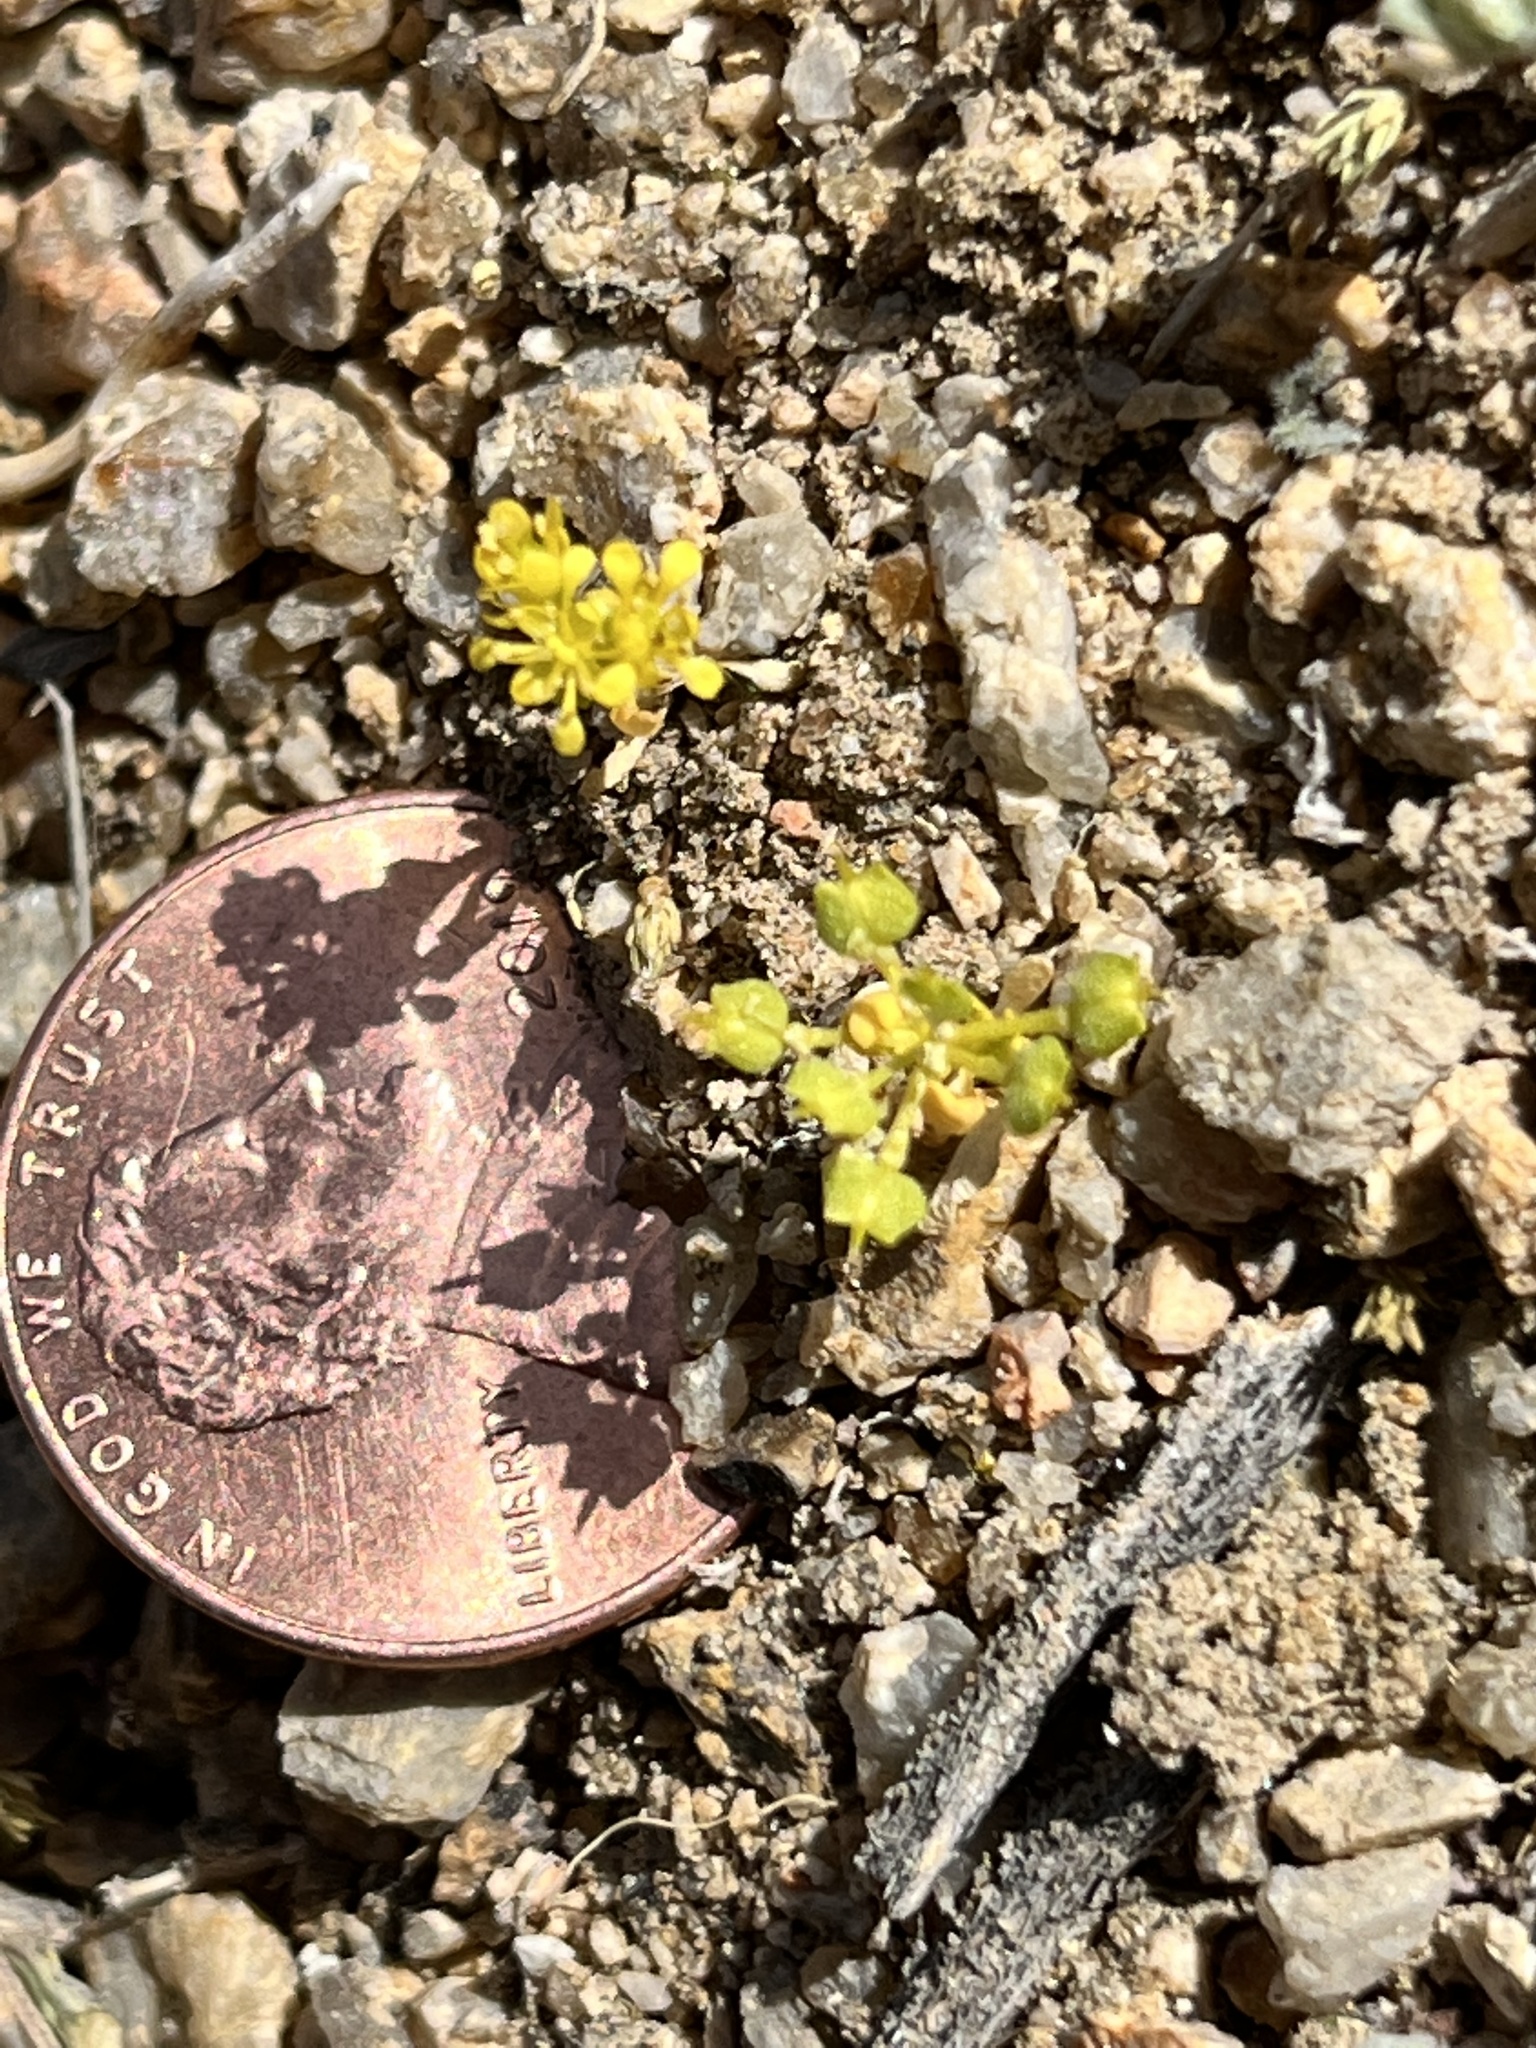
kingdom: Plantae
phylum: Tracheophyta
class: Magnoliopsida
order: Brassicales
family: Brassicaceae
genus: Lepidium
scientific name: Lepidium flavum
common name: Yellow pepperwort
